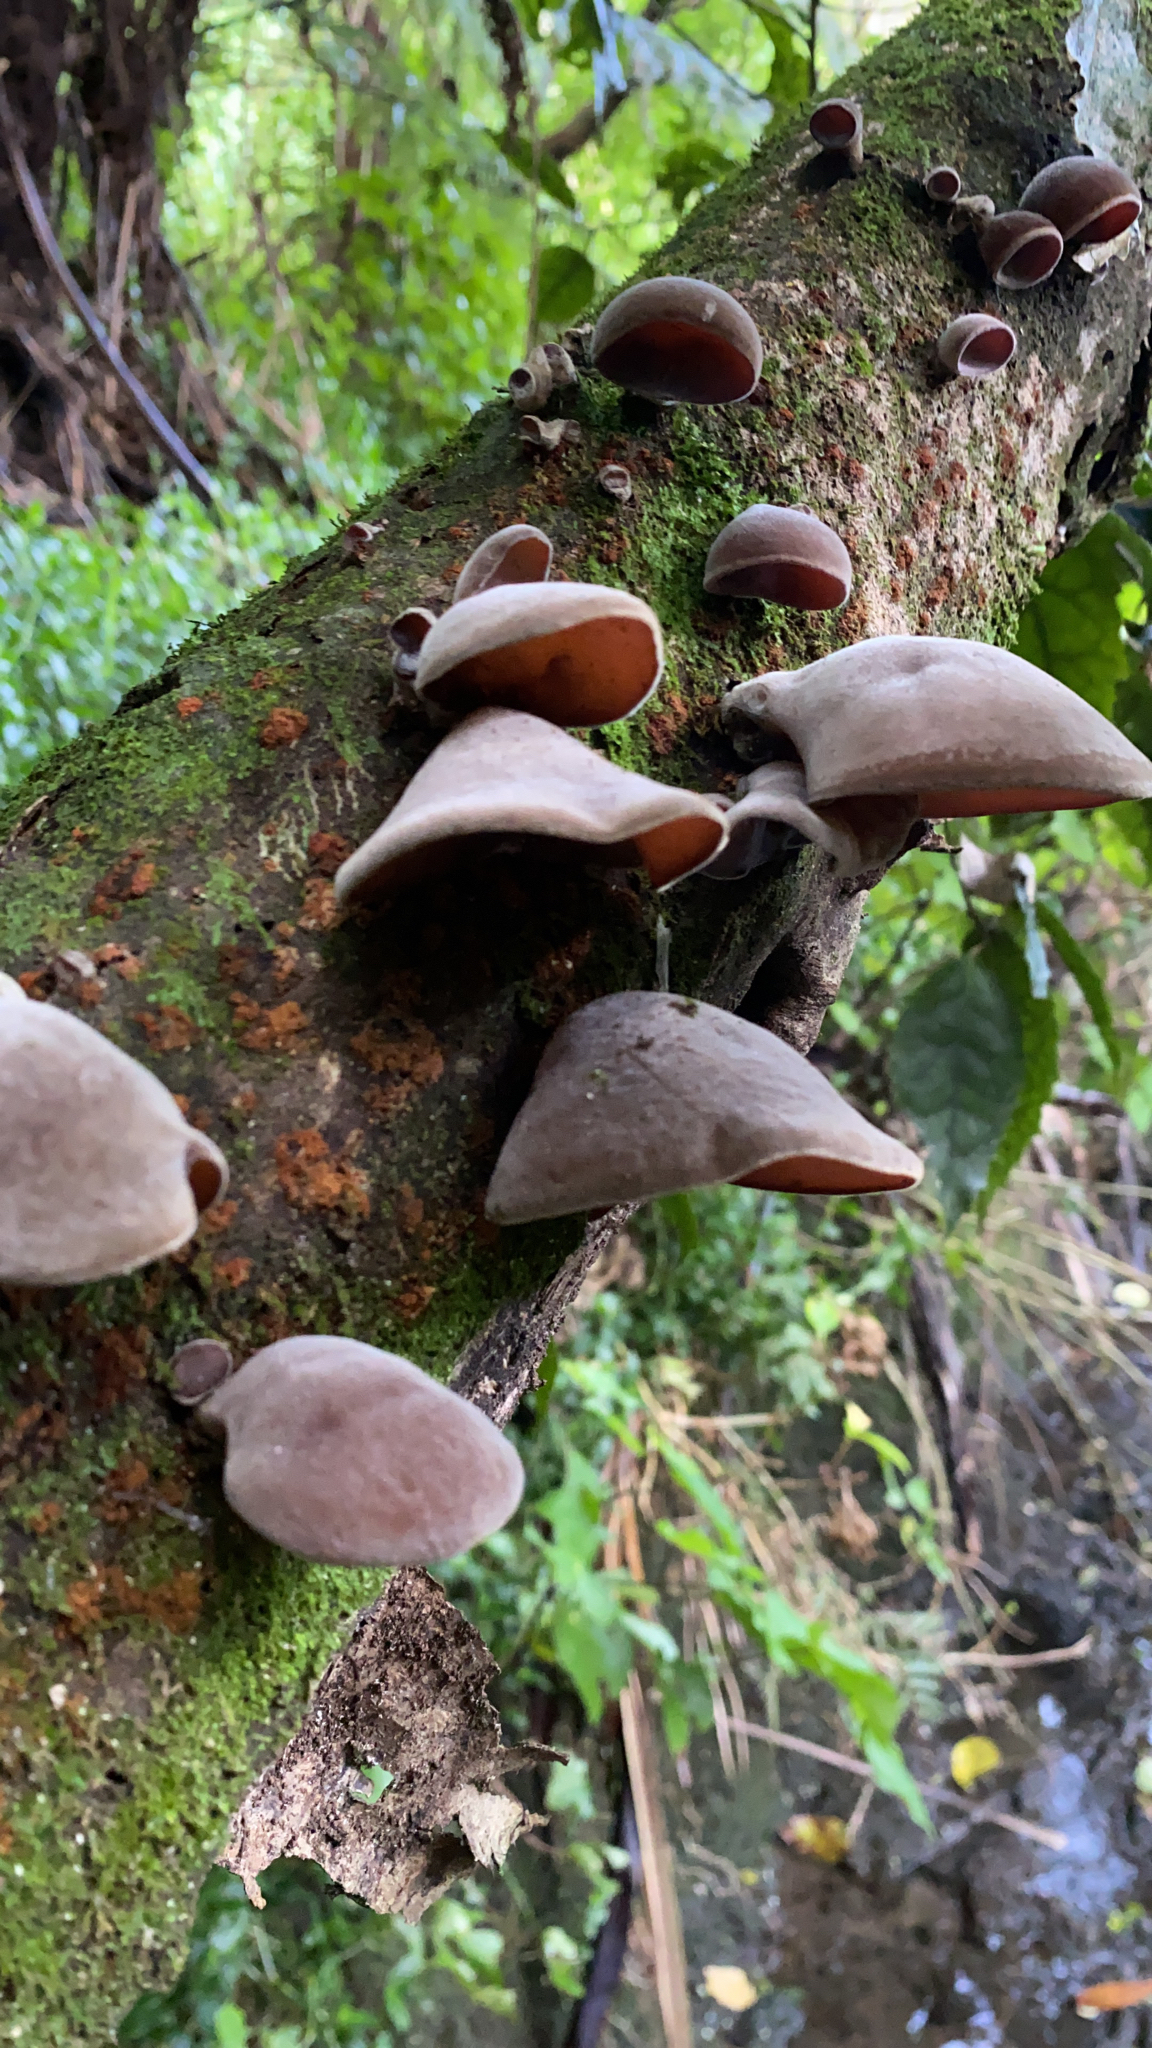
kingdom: Fungi
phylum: Basidiomycota
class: Agaricomycetes
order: Auriculariales
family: Auriculariaceae
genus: Auricularia
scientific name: Auricularia cornea
